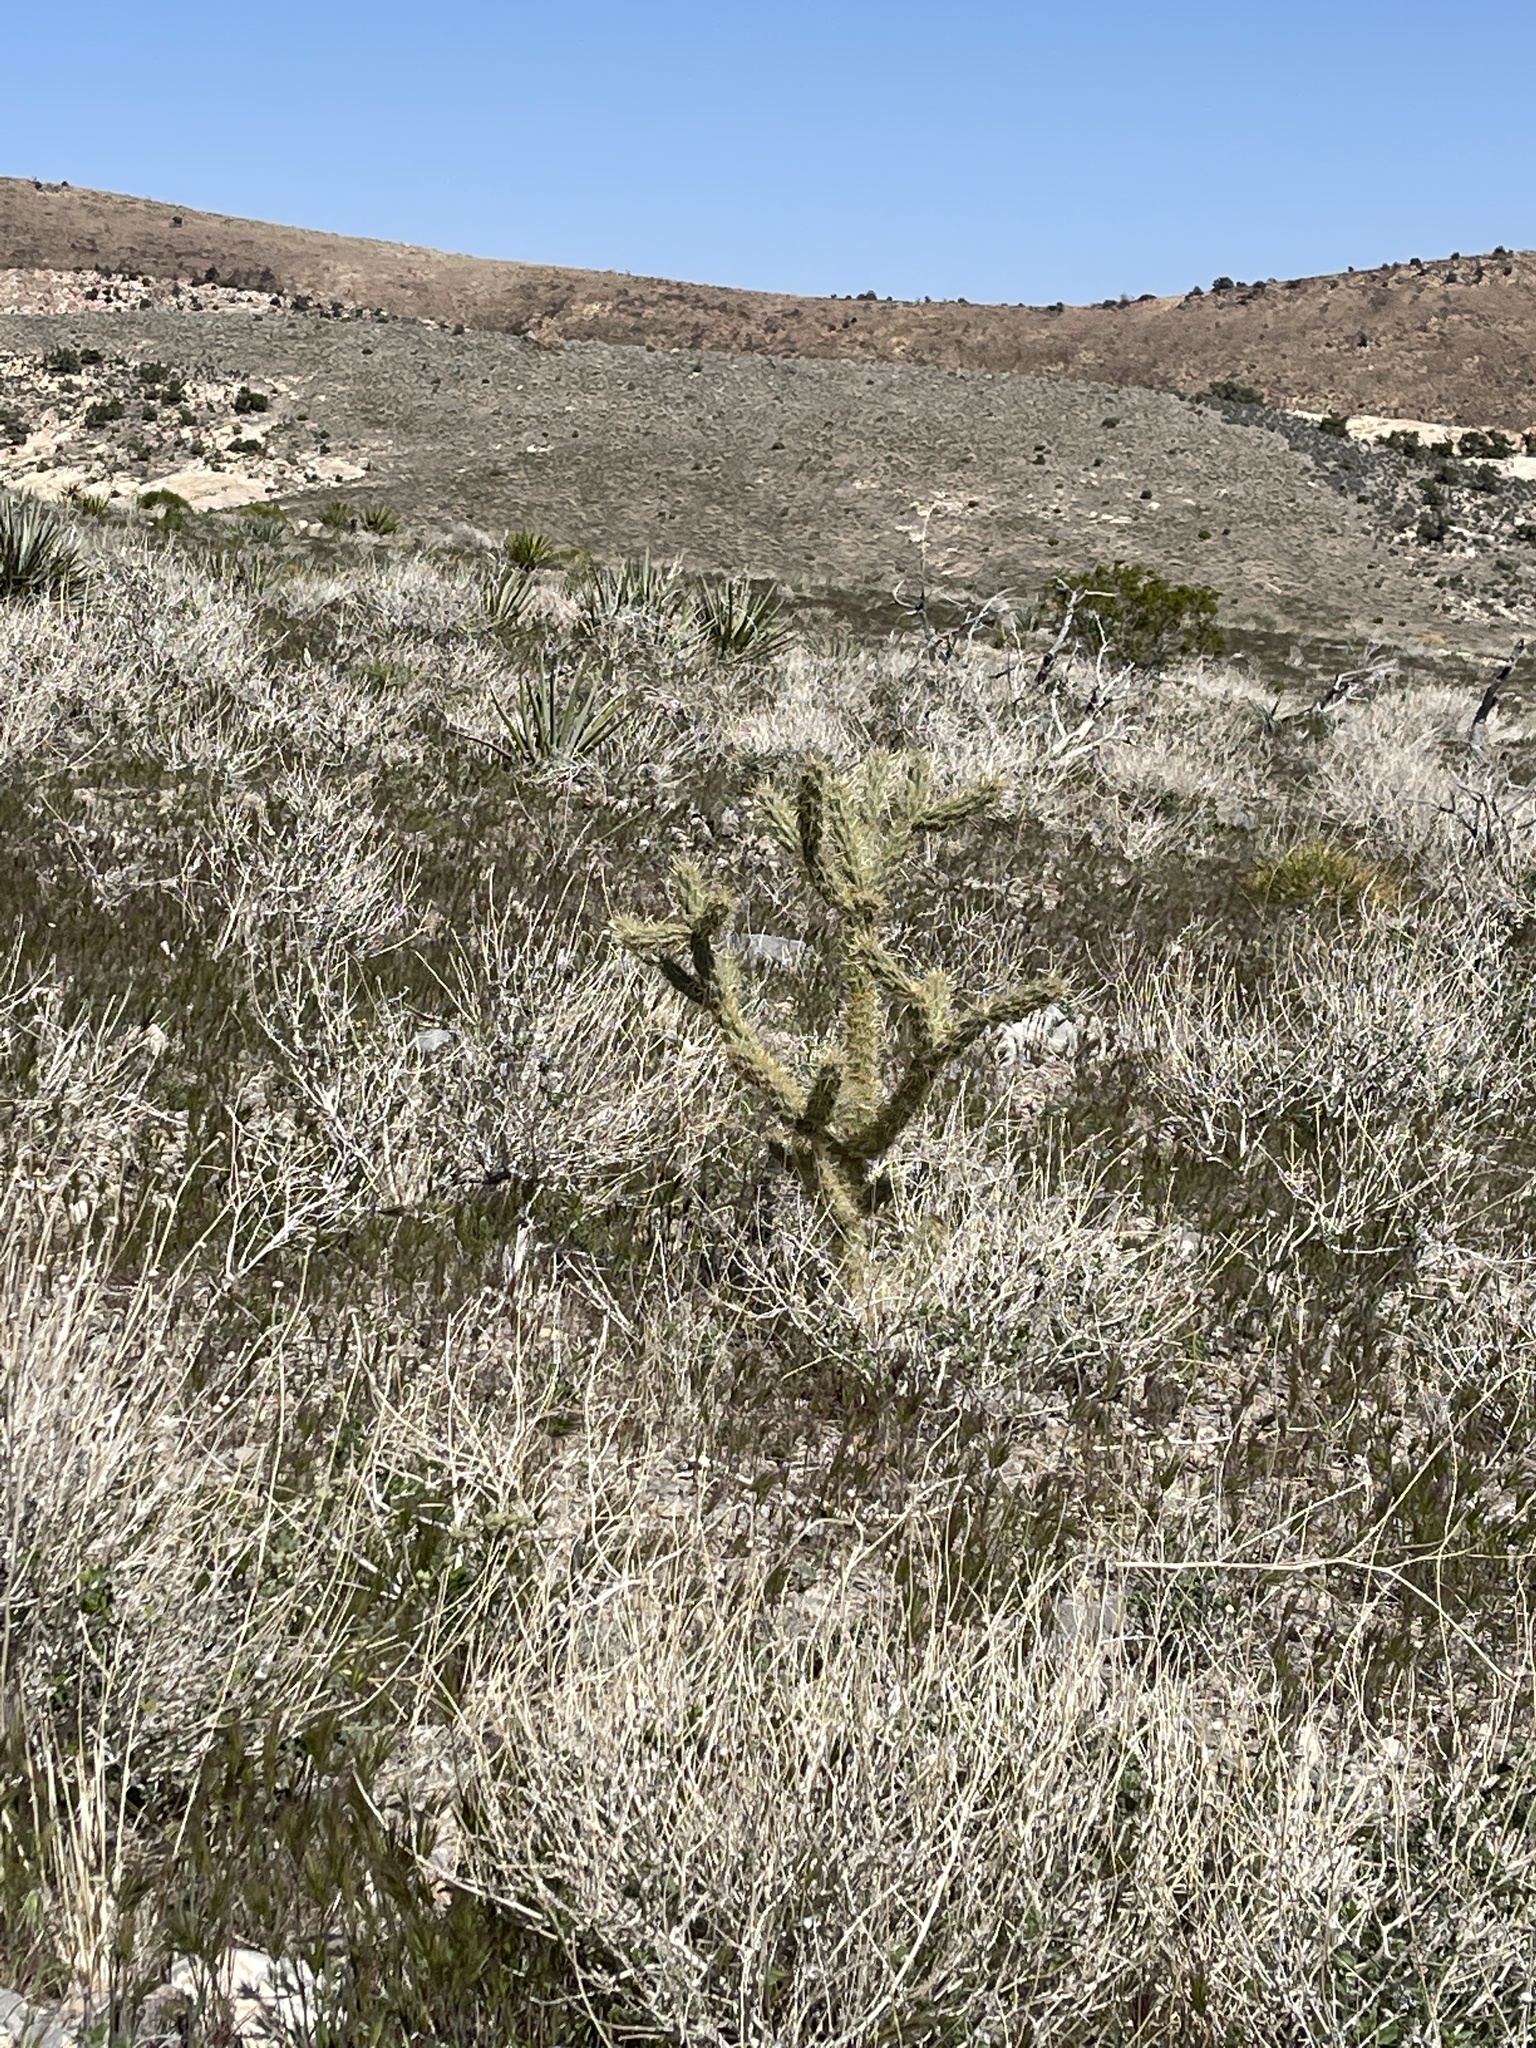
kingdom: Plantae
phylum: Tracheophyta
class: Magnoliopsida
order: Caryophyllales
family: Cactaceae
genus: Cylindropuntia
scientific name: Cylindropuntia acanthocarpa
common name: Buckhorn cholla
